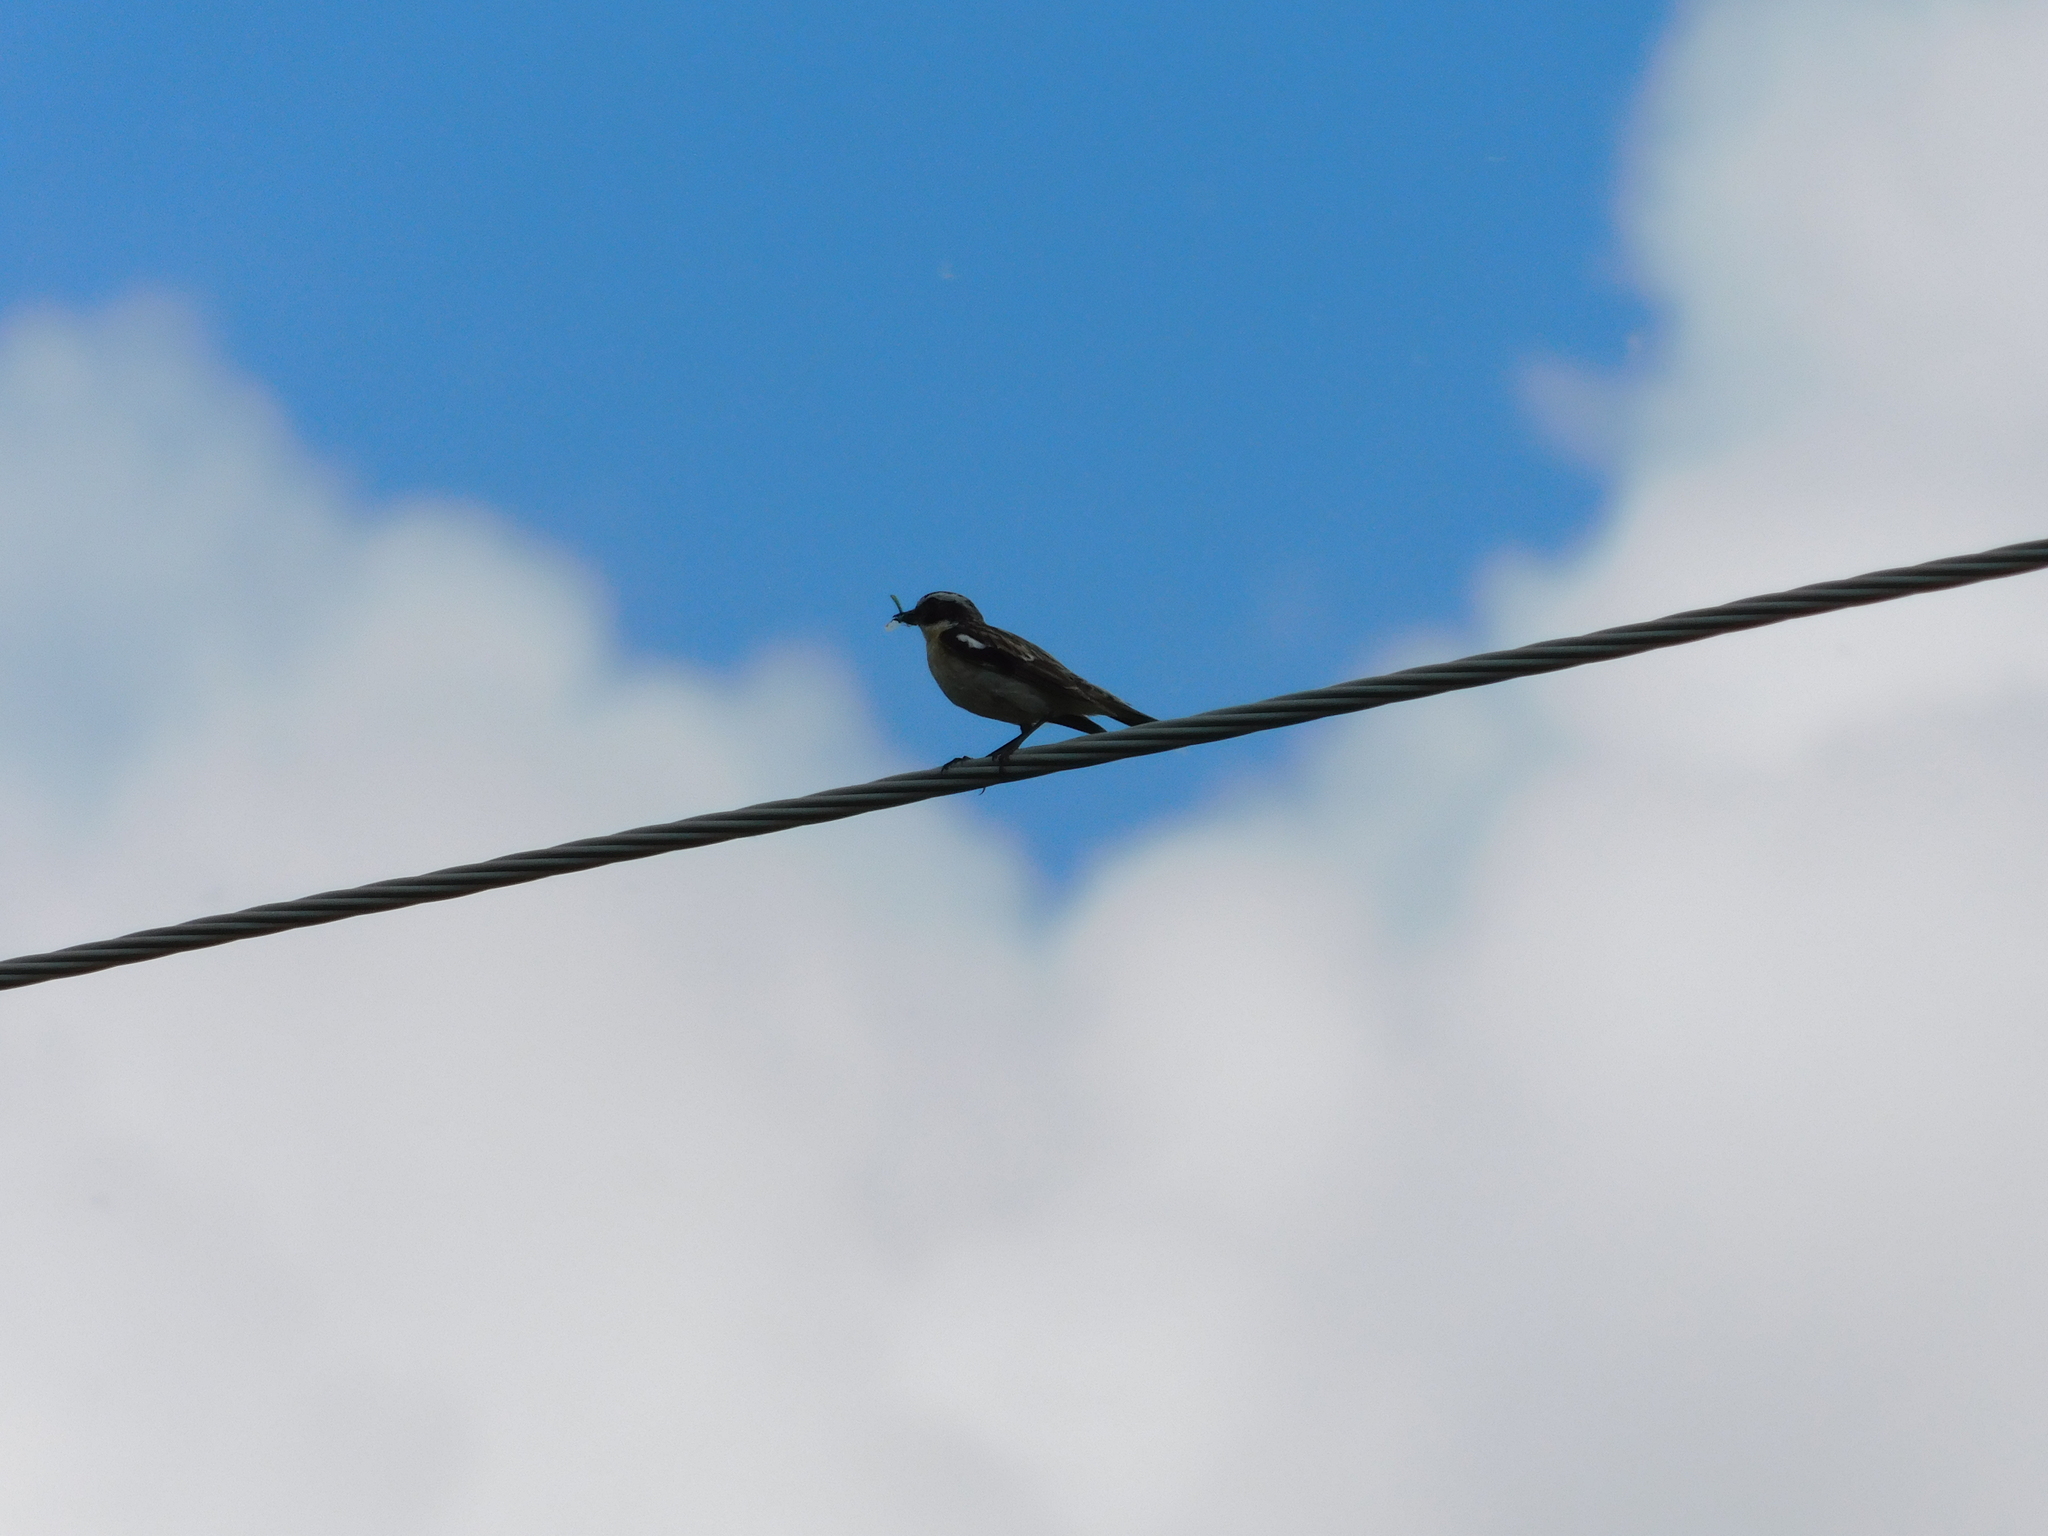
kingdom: Animalia
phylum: Chordata
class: Aves
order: Passeriformes
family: Muscicapidae
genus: Saxicola
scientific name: Saxicola rubetra
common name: Whinchat
